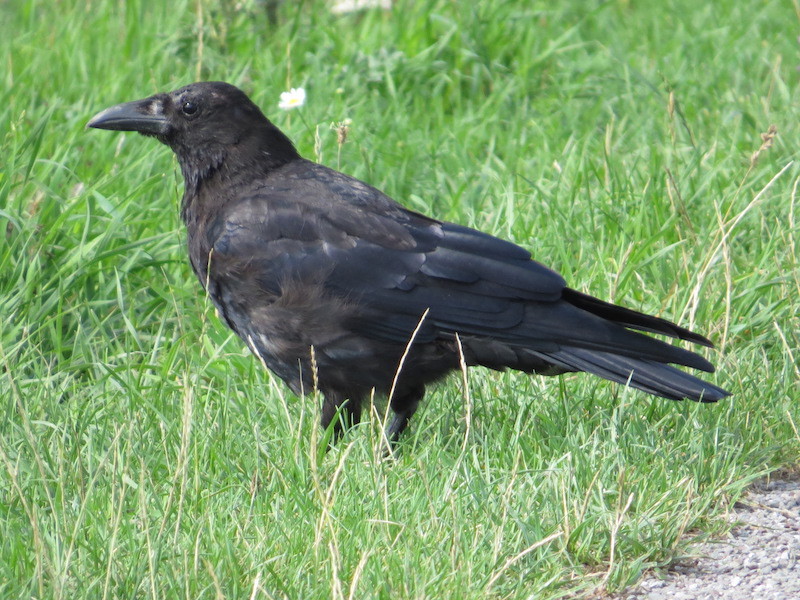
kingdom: Animalia
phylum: Chordata
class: Aves
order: Passeriformes
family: Corvidae
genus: Corvus
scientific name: Corvus corone
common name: Carrion crow
